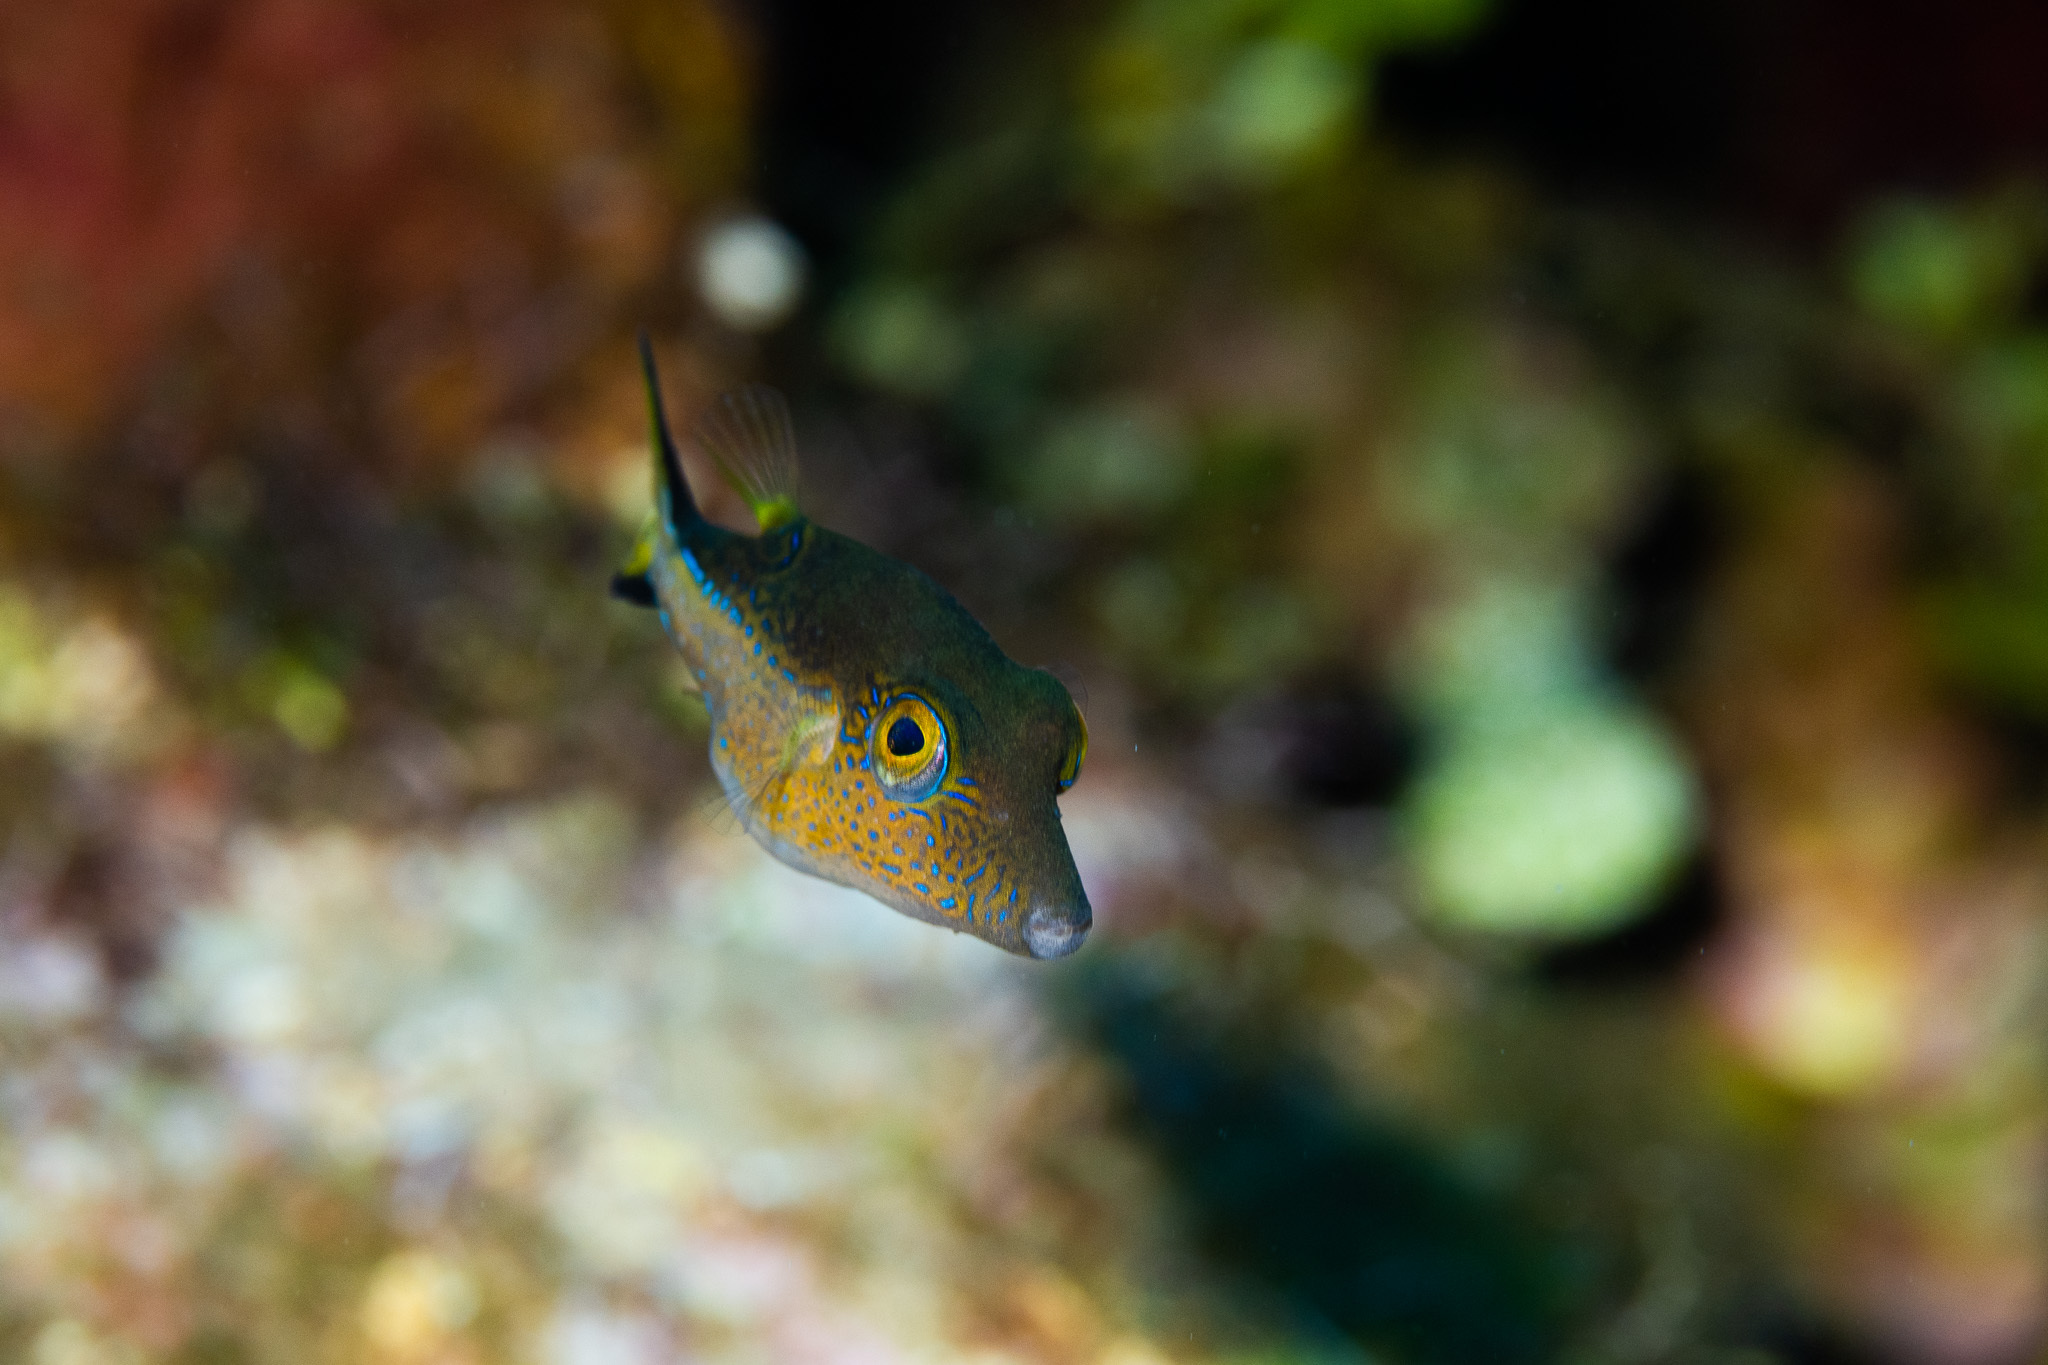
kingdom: Animalia
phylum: Chordata
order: Tetraodontiformes
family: Tetraodontidae
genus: Canthigaster
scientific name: Canthigaster rostrata
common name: Caribbean sharpnose-puffer
